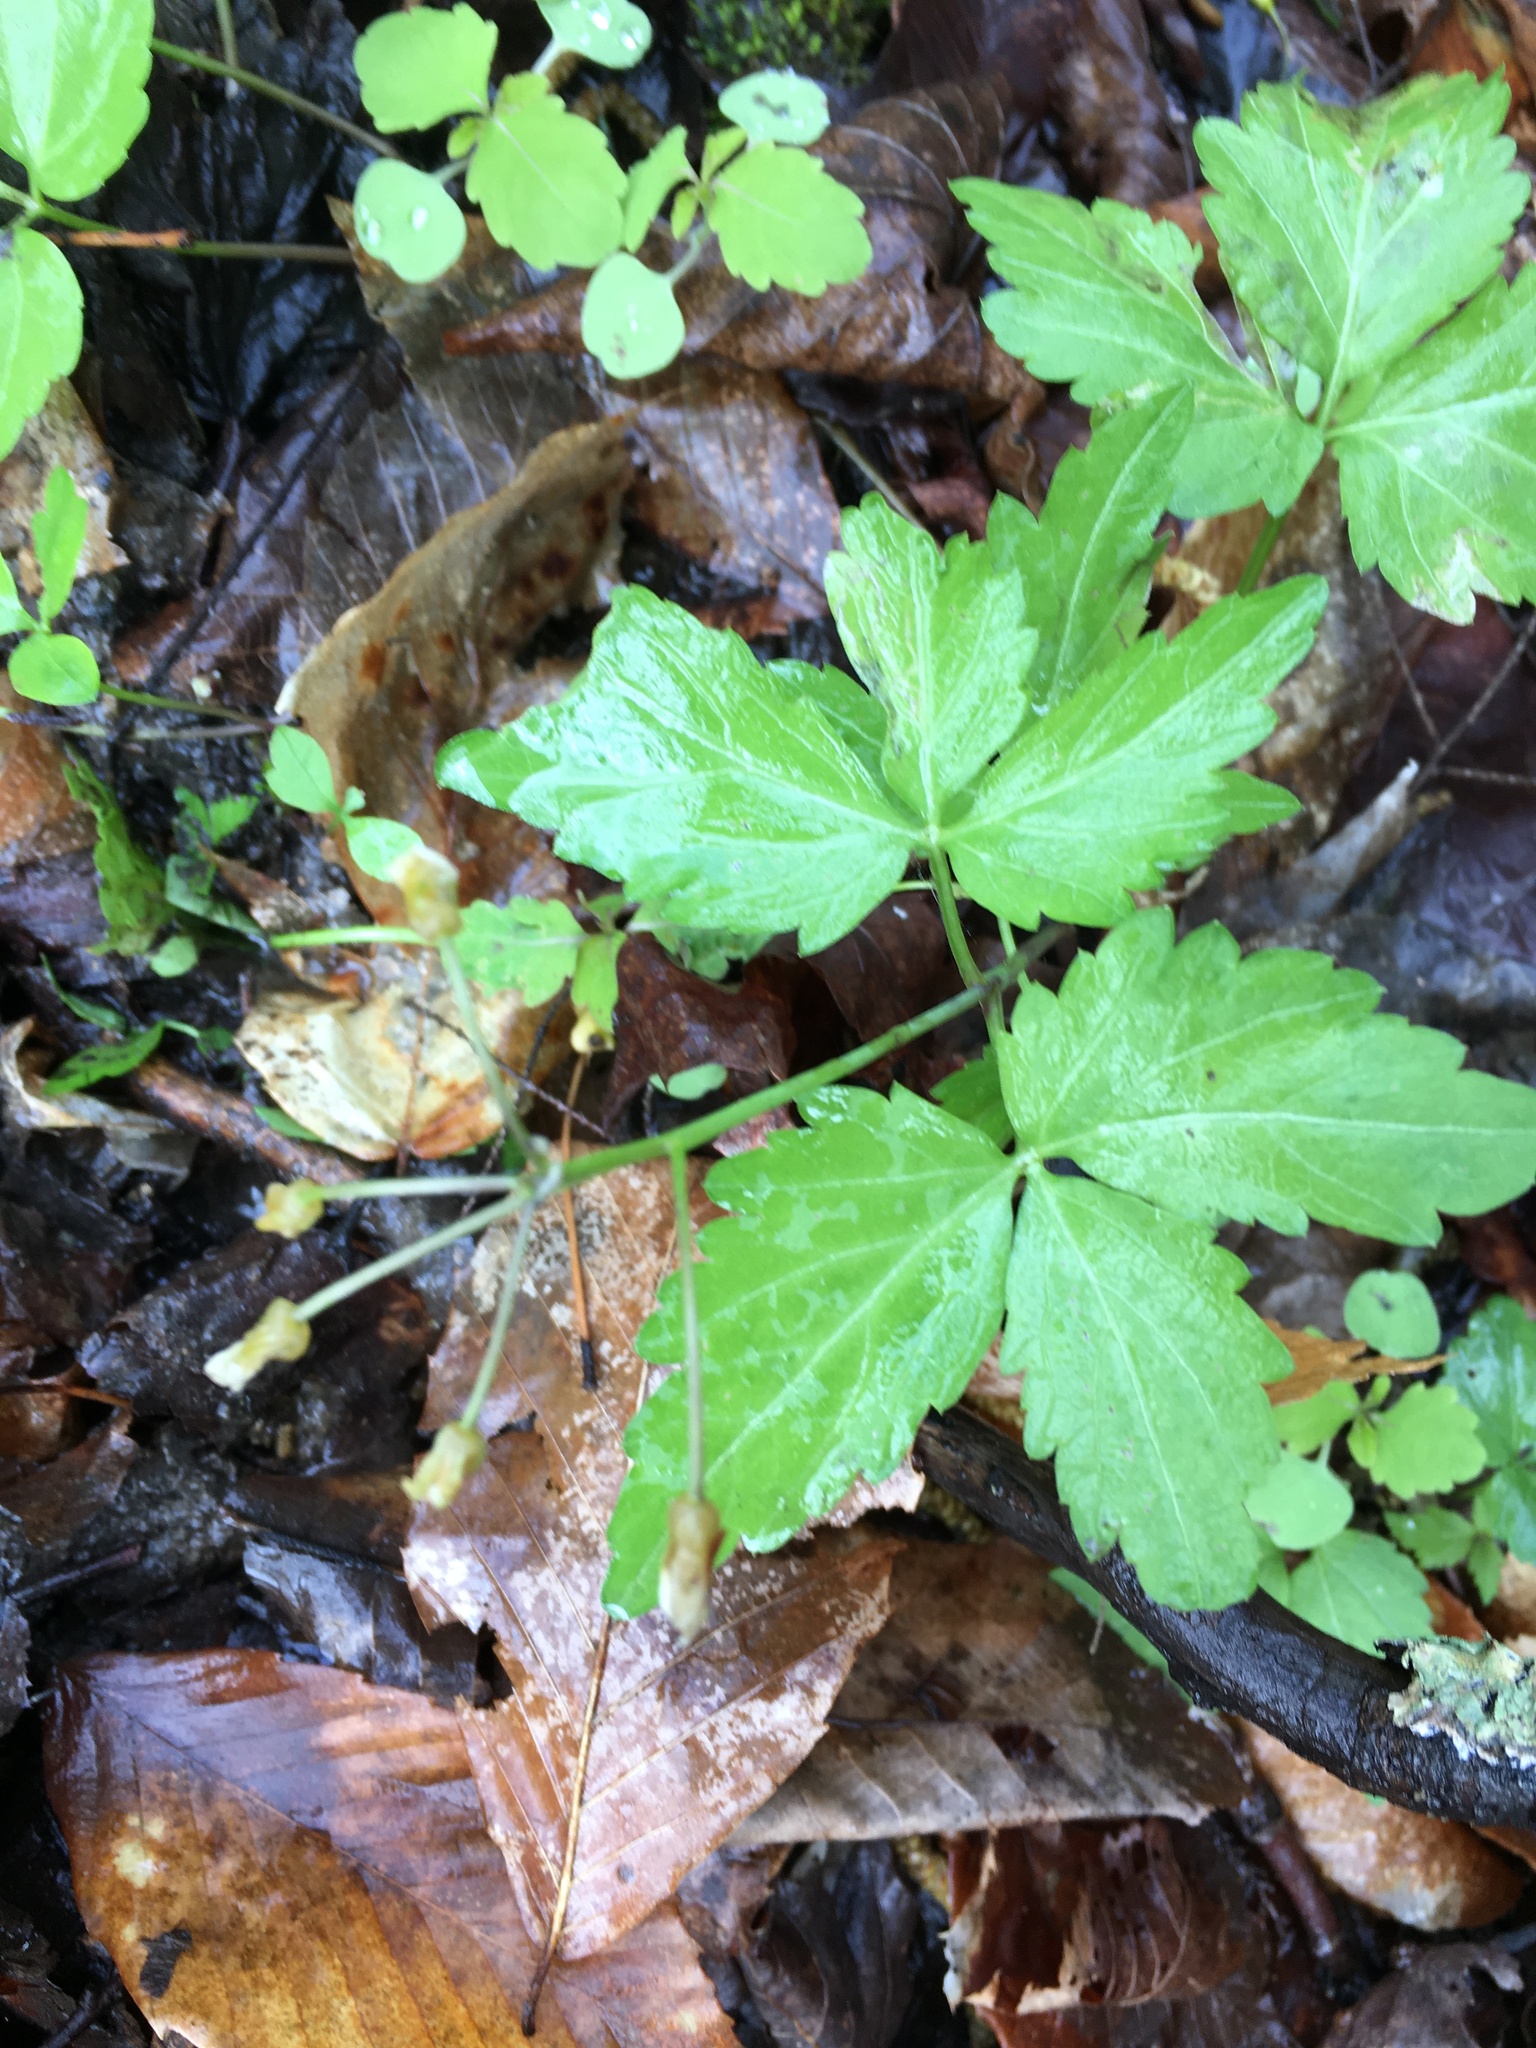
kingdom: Plantae
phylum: Tracheophyta
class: Magnoliopsida
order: Brassicales
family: Brassicaceae
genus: Cardamine
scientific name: Cardamine diphylla
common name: Broad-leaved toothwort
